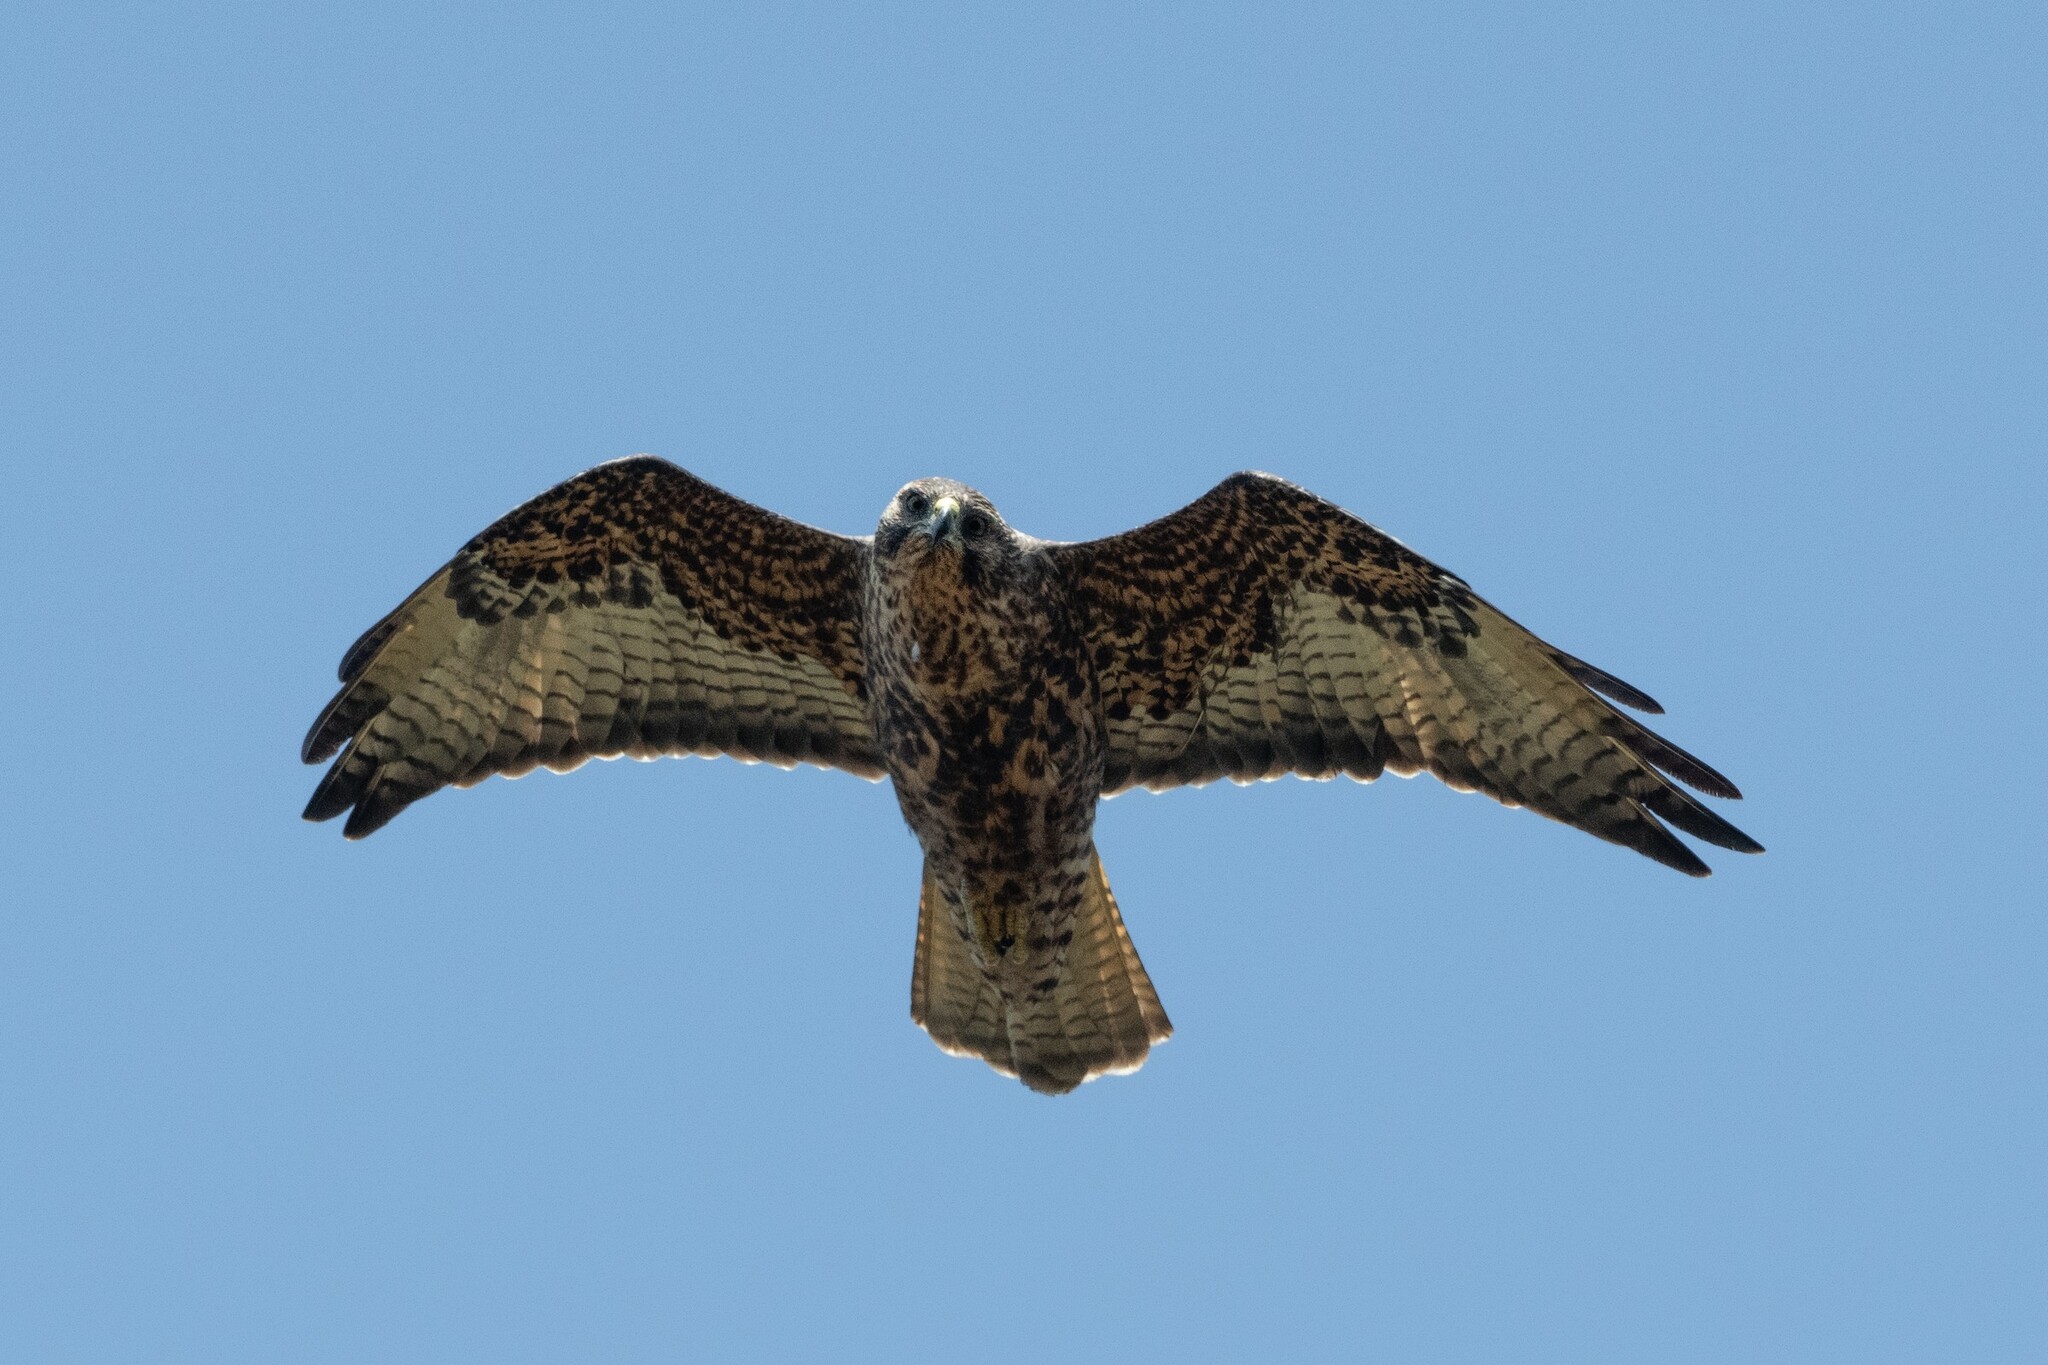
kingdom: Animalia
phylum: Chordata
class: Aves
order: Accipitriformes
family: Accipitridae
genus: Buteo
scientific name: Buteo galapagoensis
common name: Galapagos hawk
